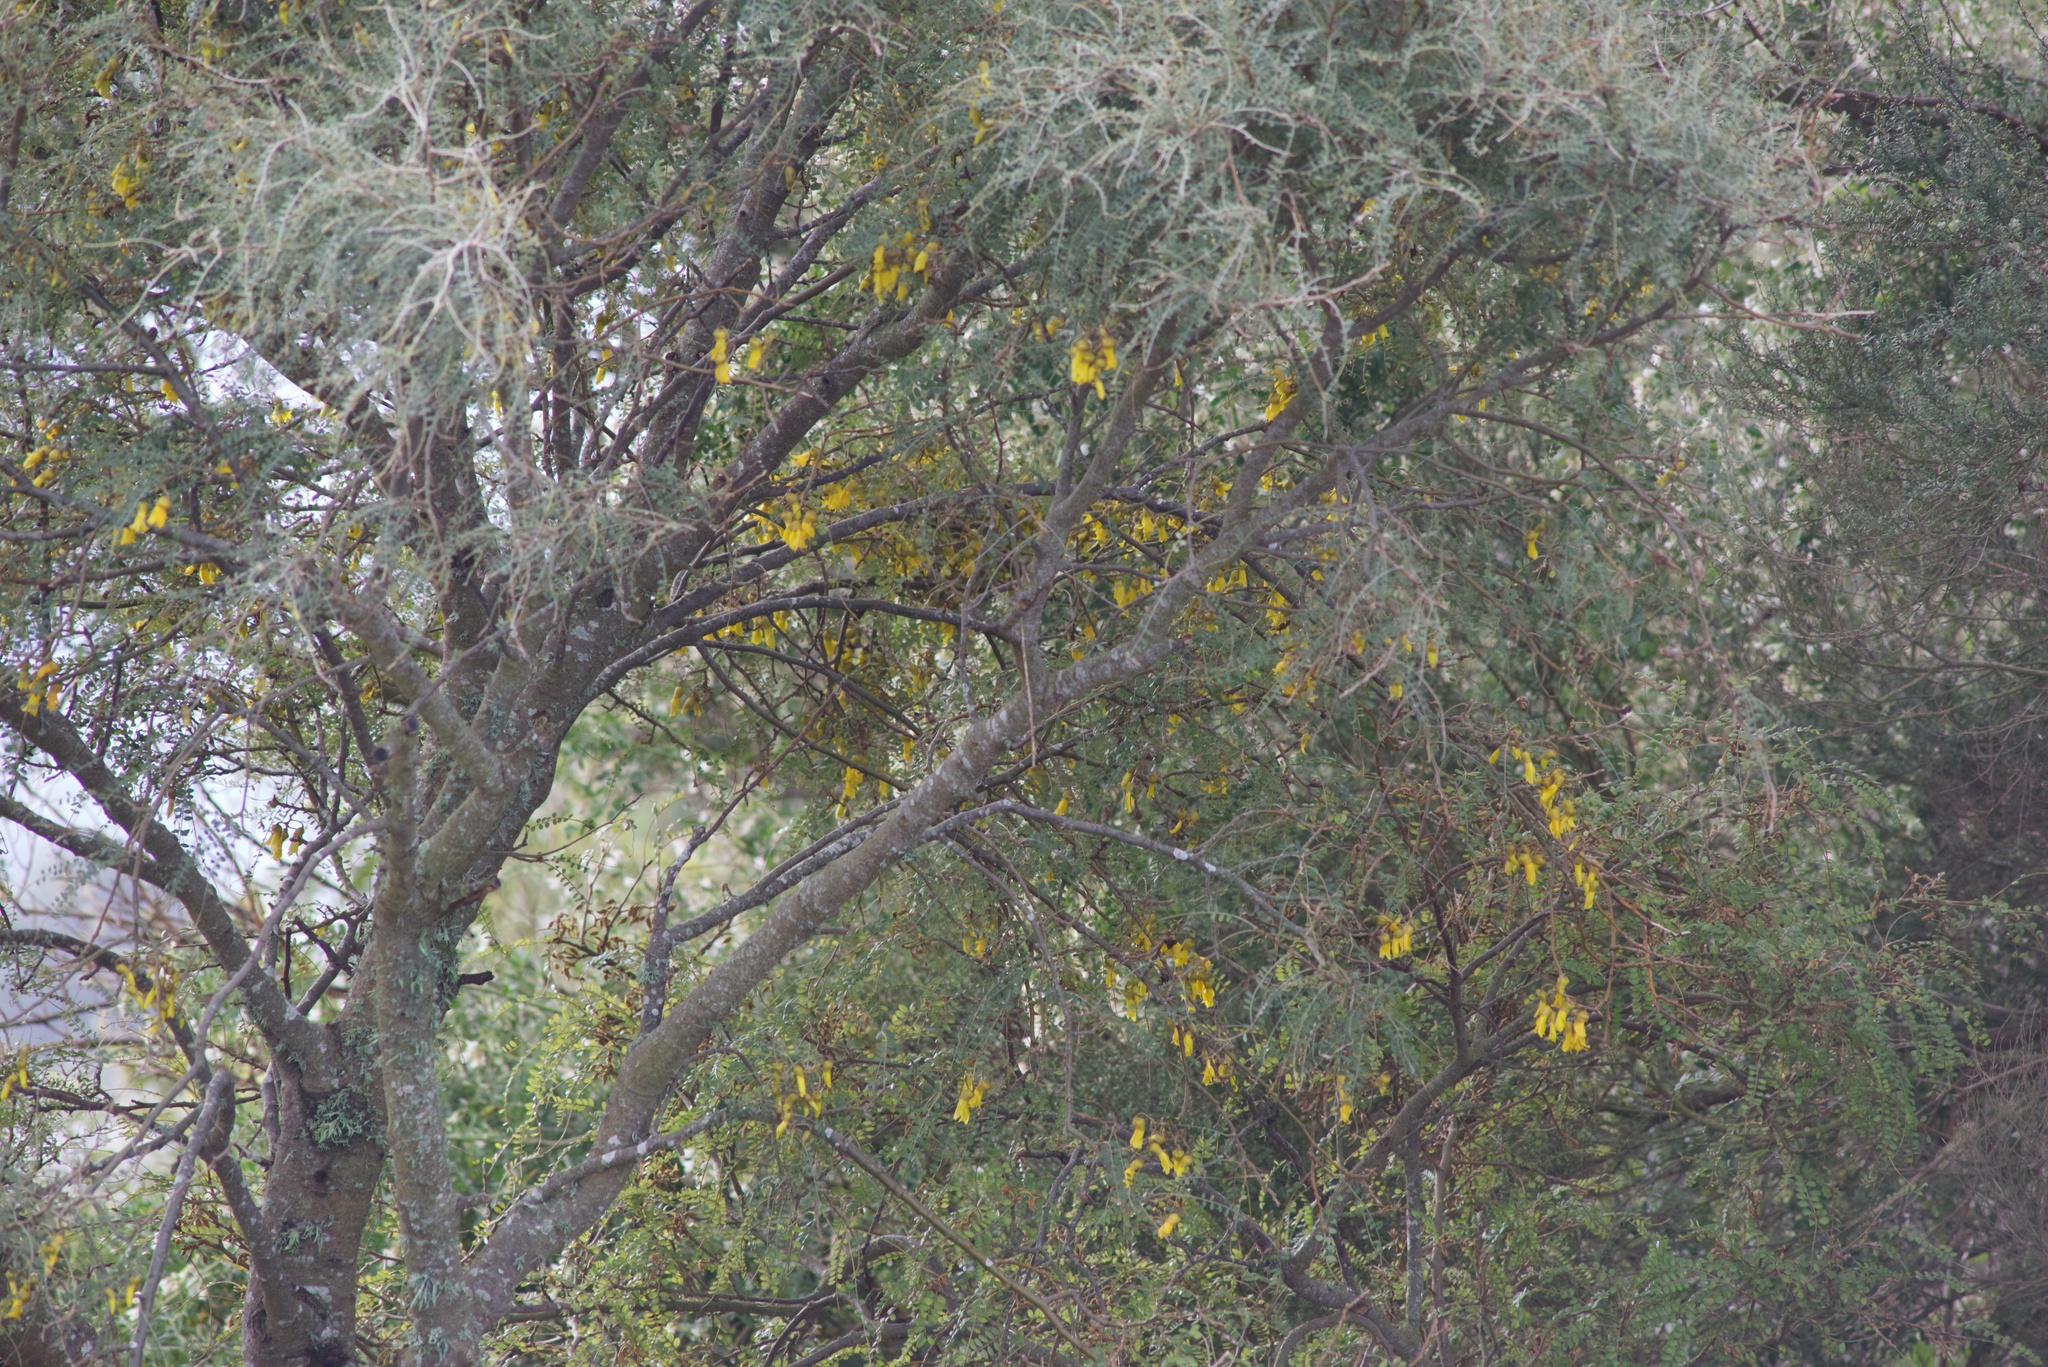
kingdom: Plantae
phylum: Tracheophyta
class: Magnoliopsida
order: Fabales
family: Fabaceae
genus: Sophora
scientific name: Sophora microphylla
